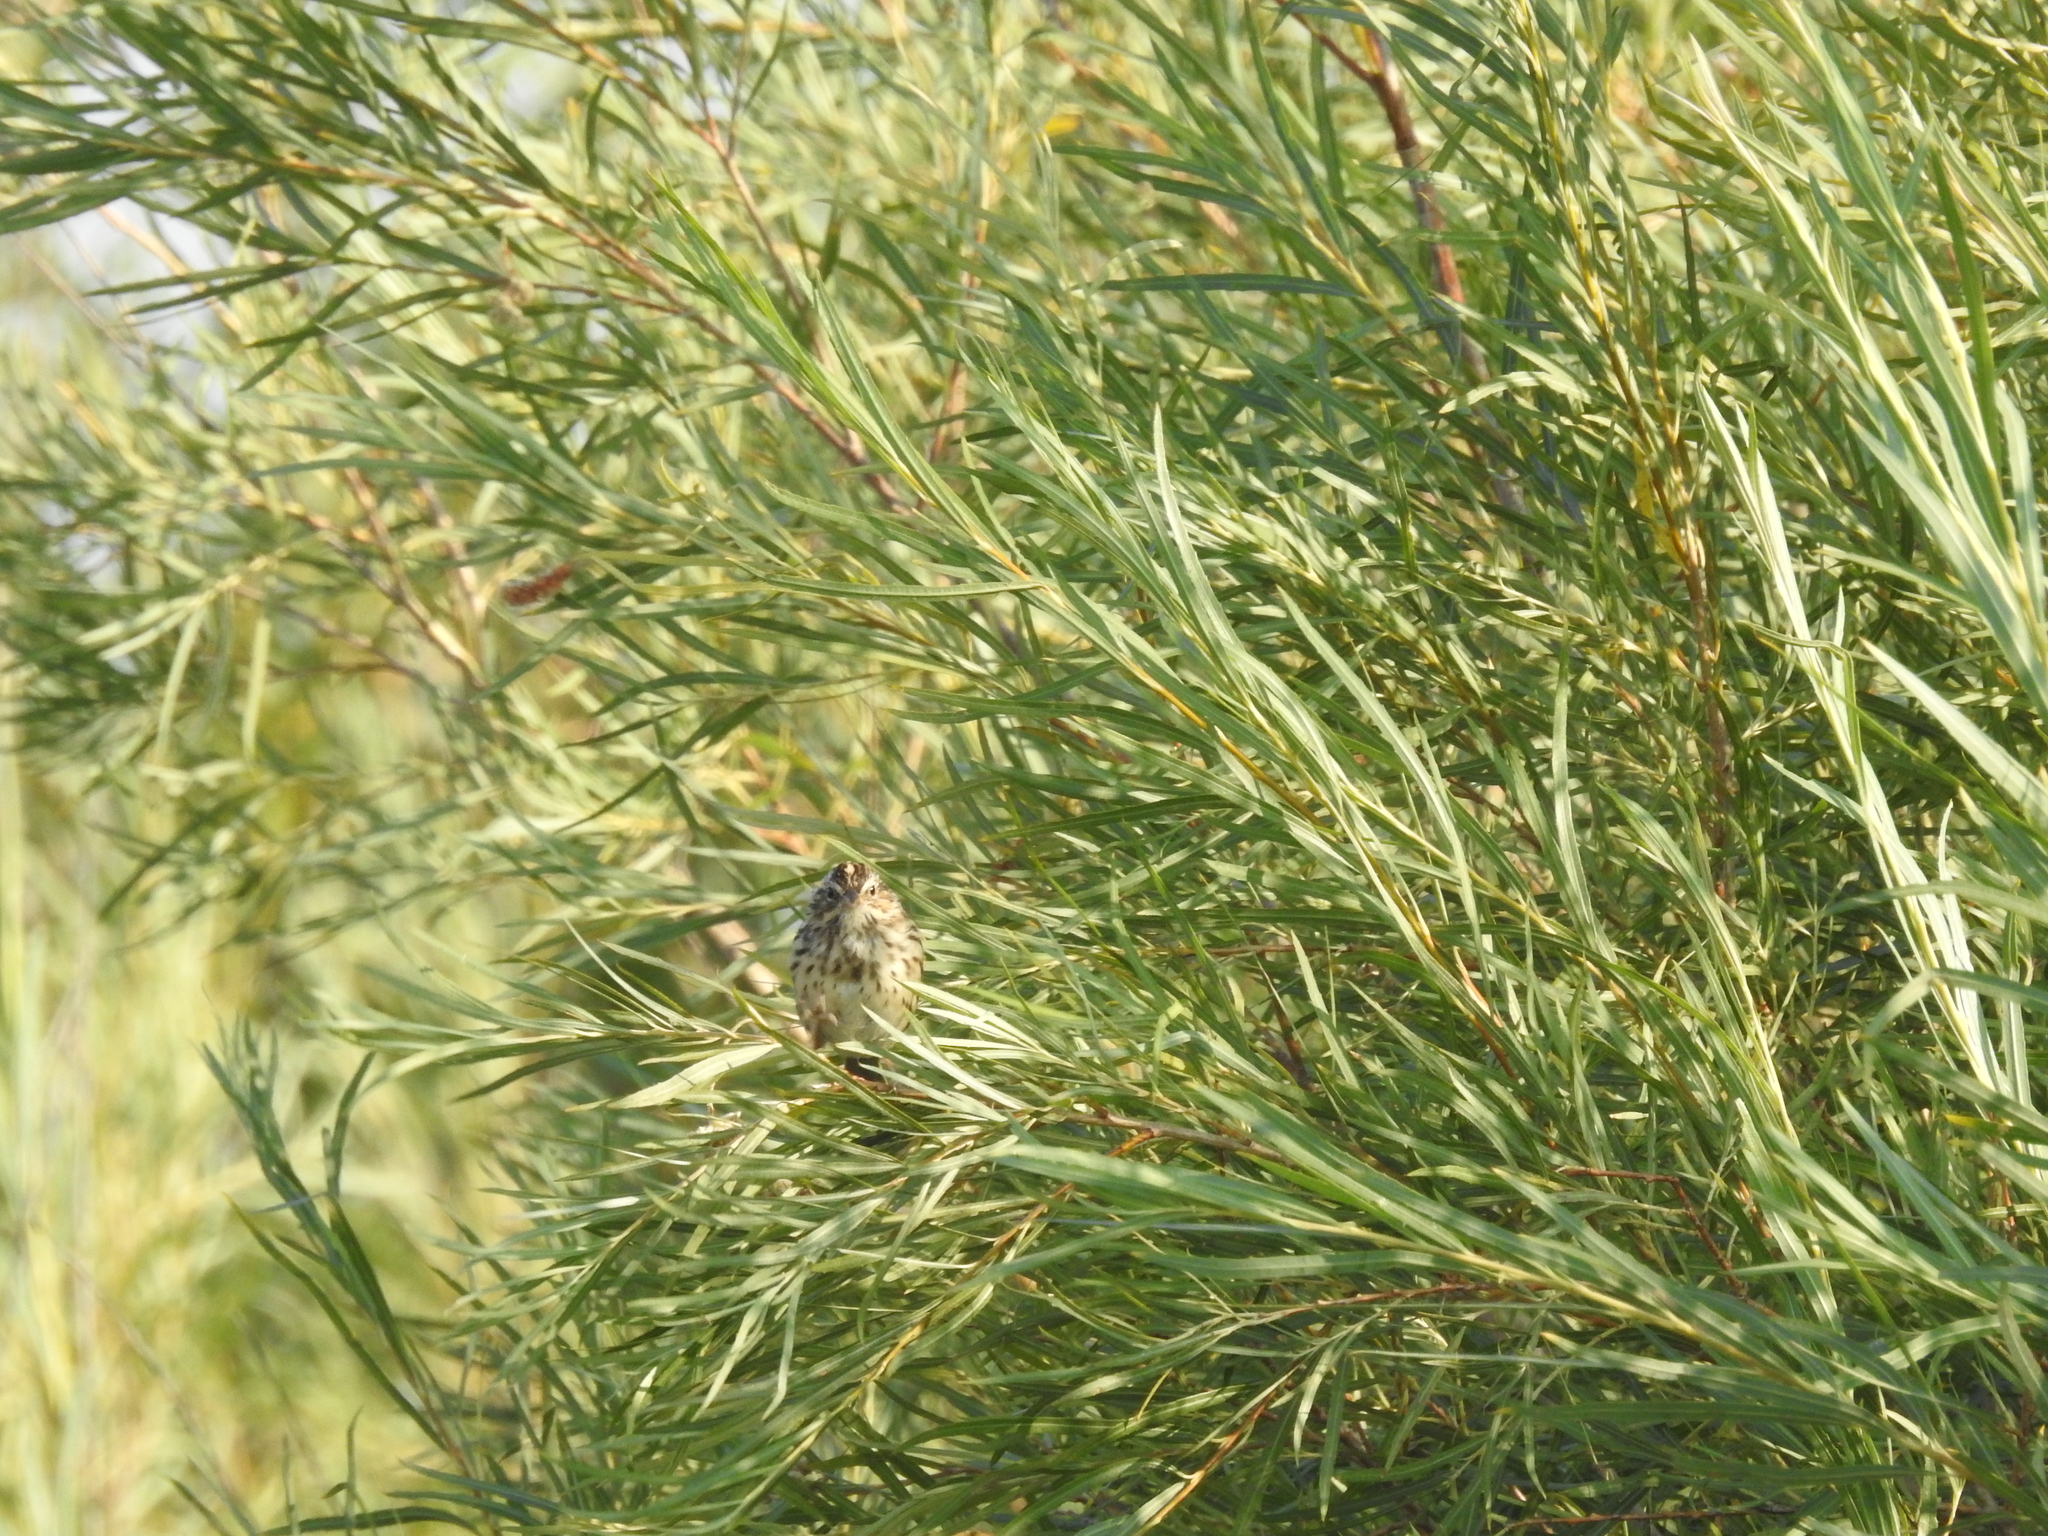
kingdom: Animalia
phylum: Chordata
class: Aves
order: Passeriformes
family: Passerellidae
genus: Passerculus
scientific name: Passerculus sandwichensis
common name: Savannah sparrow
